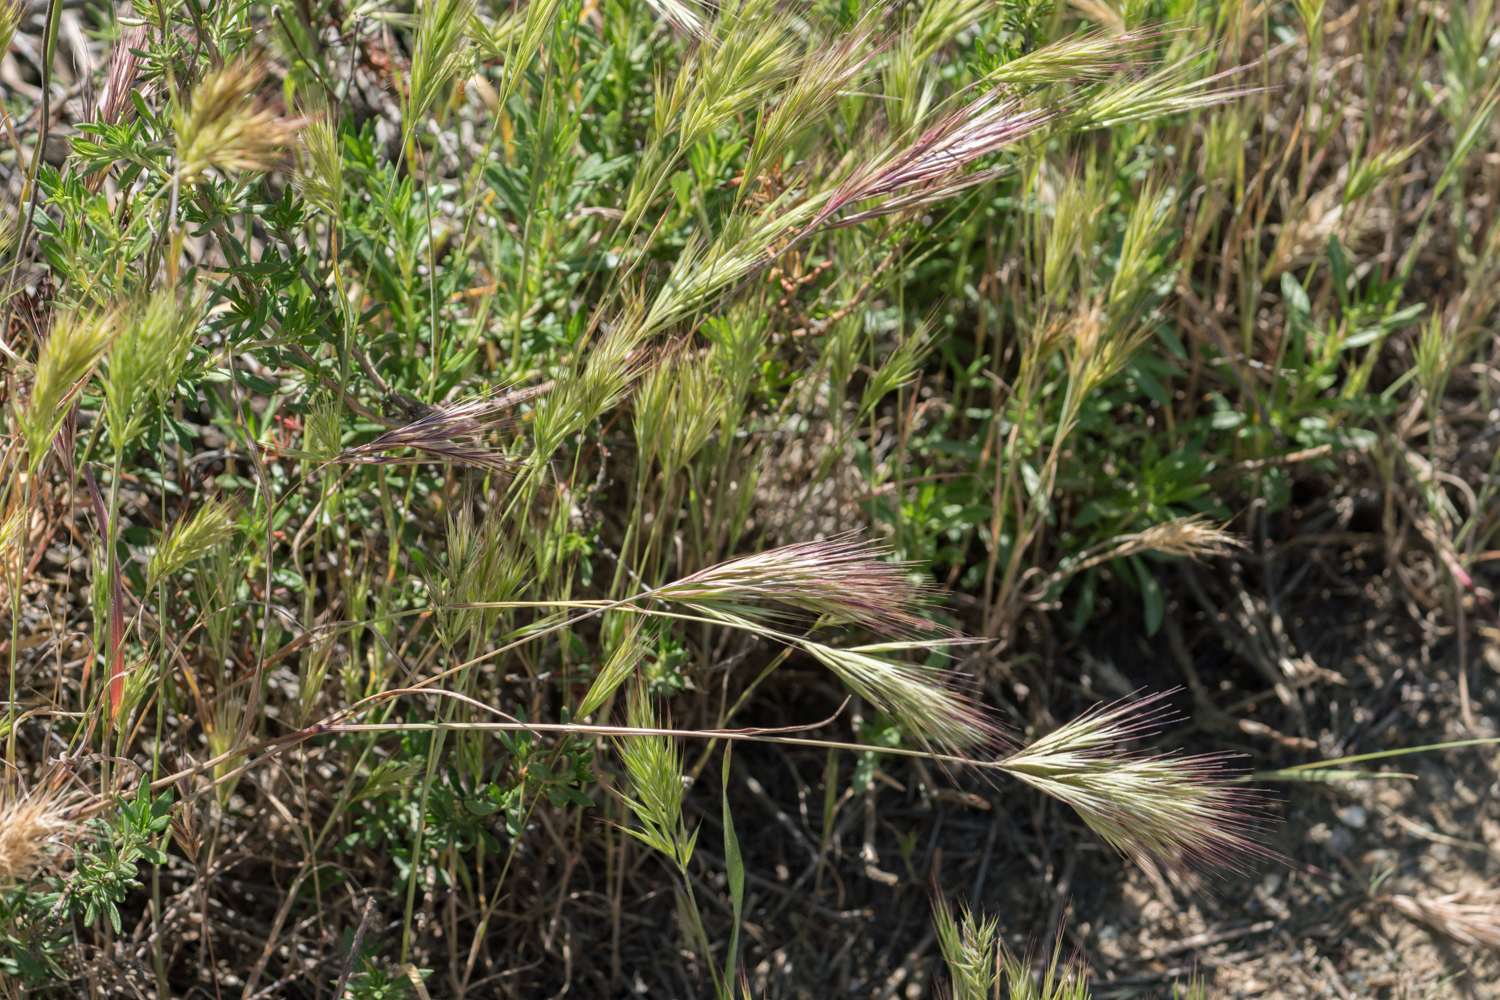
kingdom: Plantae
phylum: Tracheophyta
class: Liliopsida
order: Poales
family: Poaceae
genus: Bromus
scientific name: Bromus rubens
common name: Red brome
